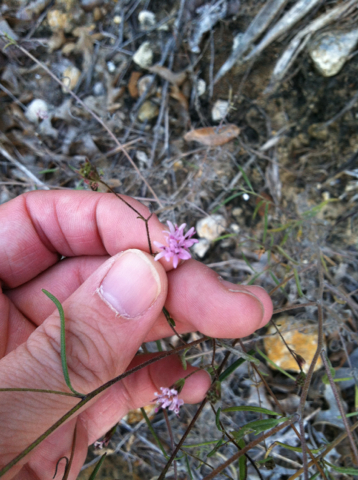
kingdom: Plantae
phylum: Tracheophyta
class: Magnoliopsida
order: Asterales
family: Asteraceae
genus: Palafoxia
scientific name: Palafoxia callosa
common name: Small palafox
